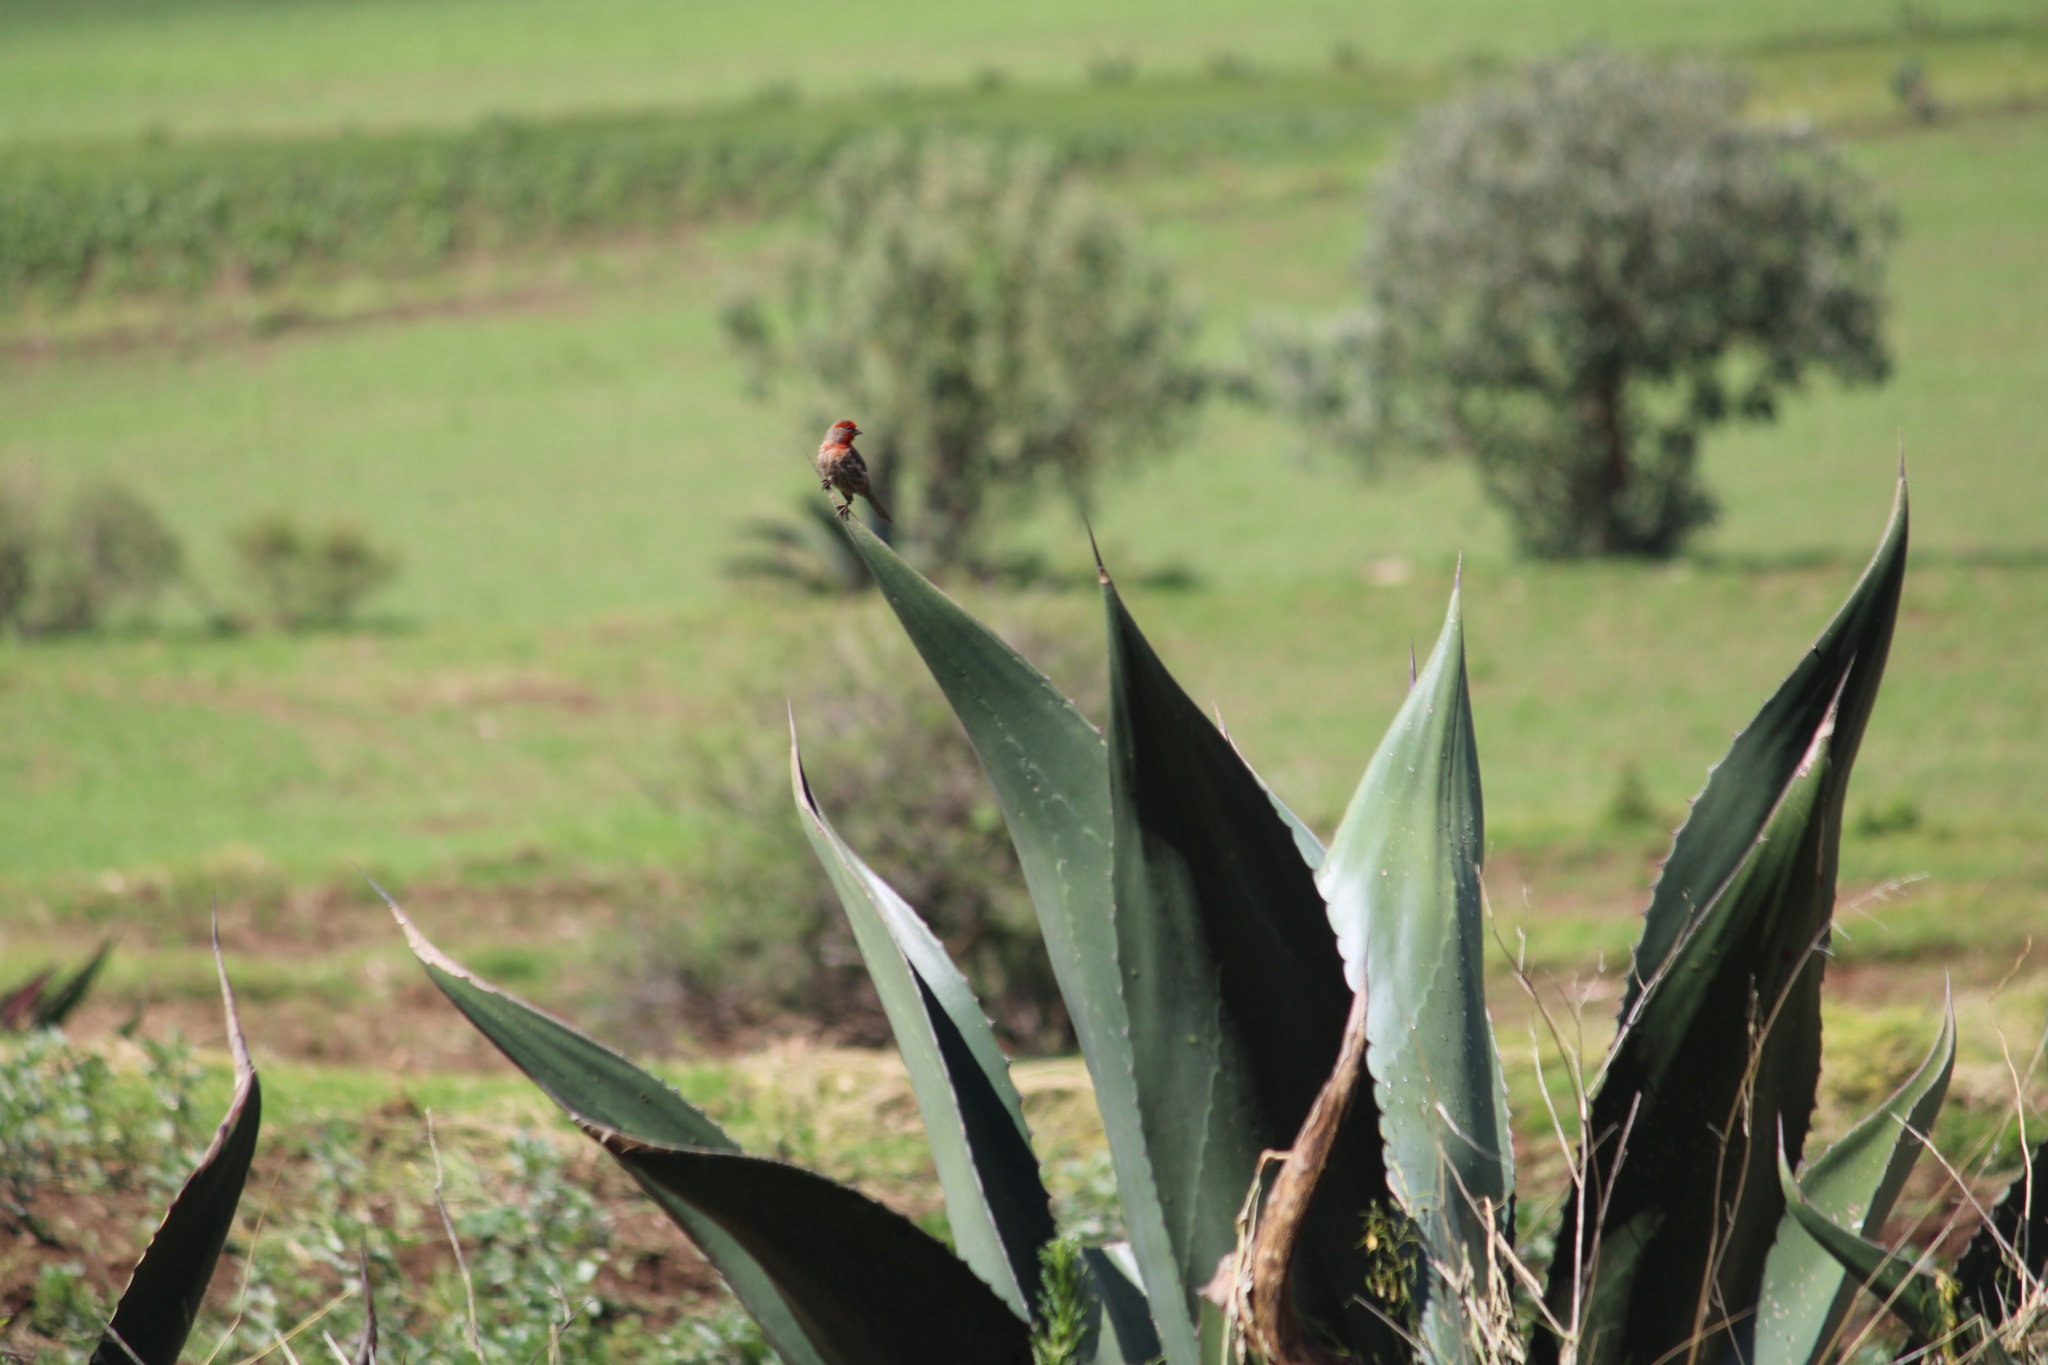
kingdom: Animalia
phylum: Chordata
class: Aves
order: Passeriformes
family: Fringillidae
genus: Haemorhous
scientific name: Haemorhous mexicanus
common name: House finch
